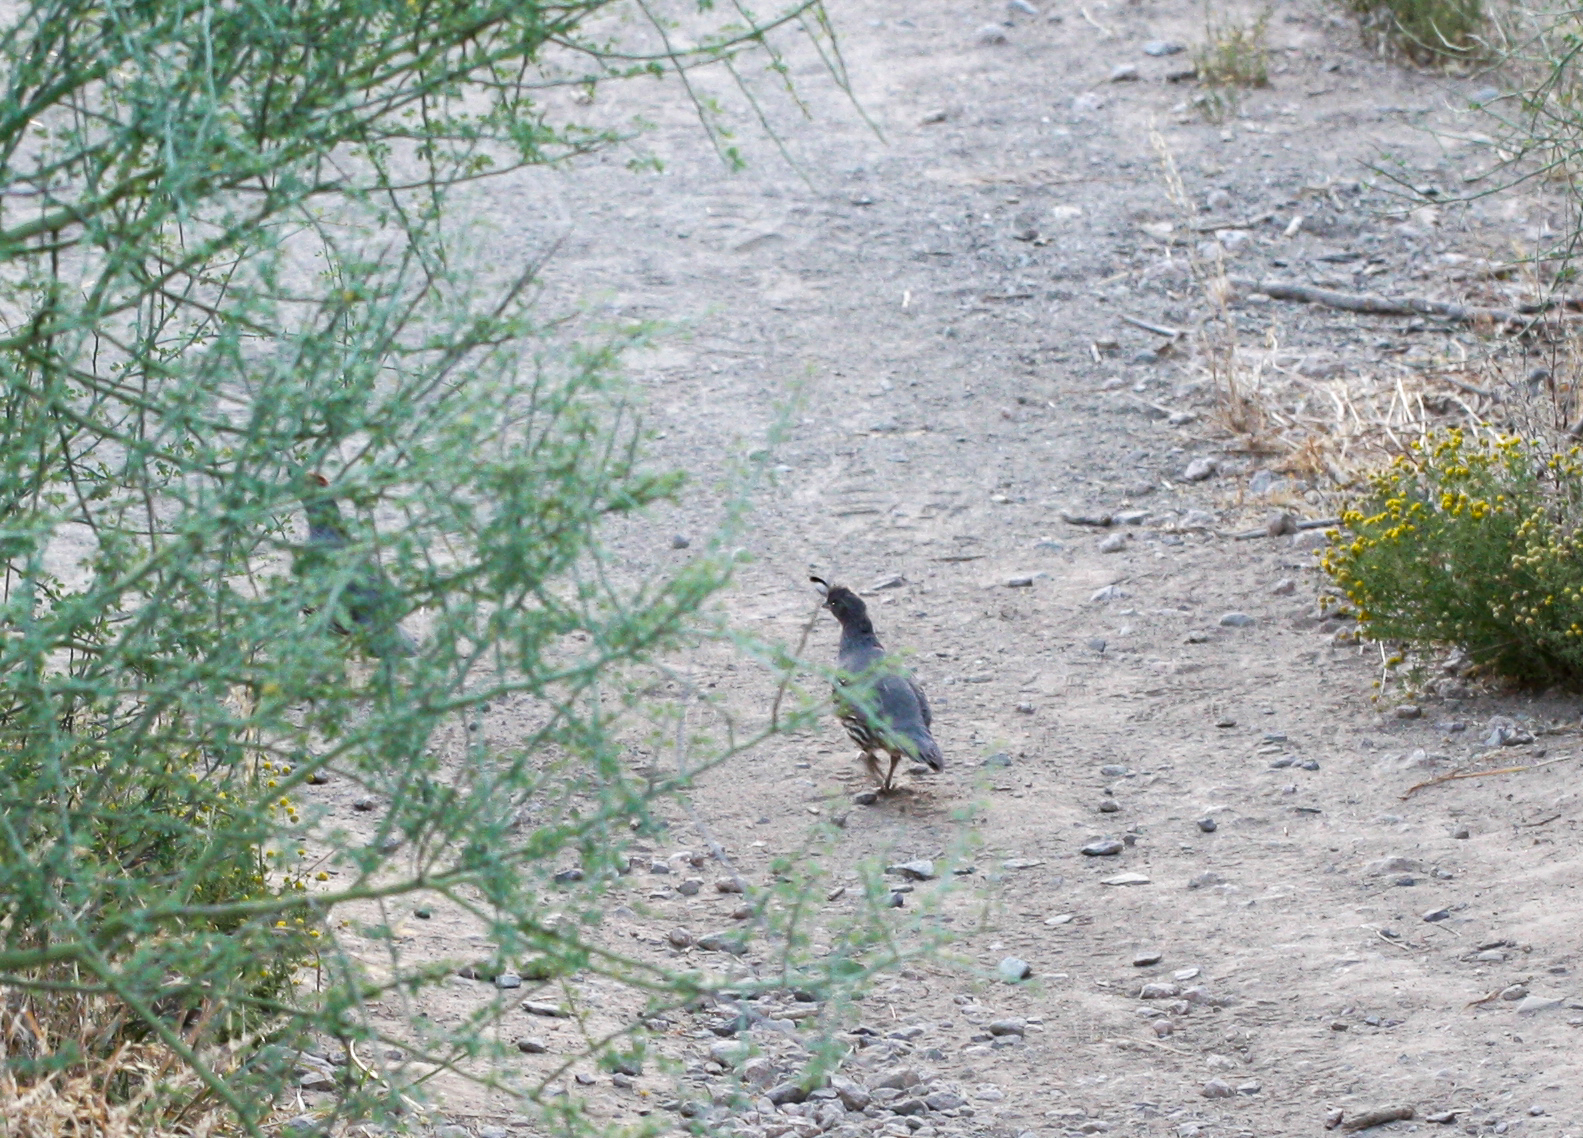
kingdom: Animalia
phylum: Chordata
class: Aves
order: Galliformes
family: Odontophoridae
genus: Callipepla
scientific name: Callipepla gambelii
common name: Gambel's quail
